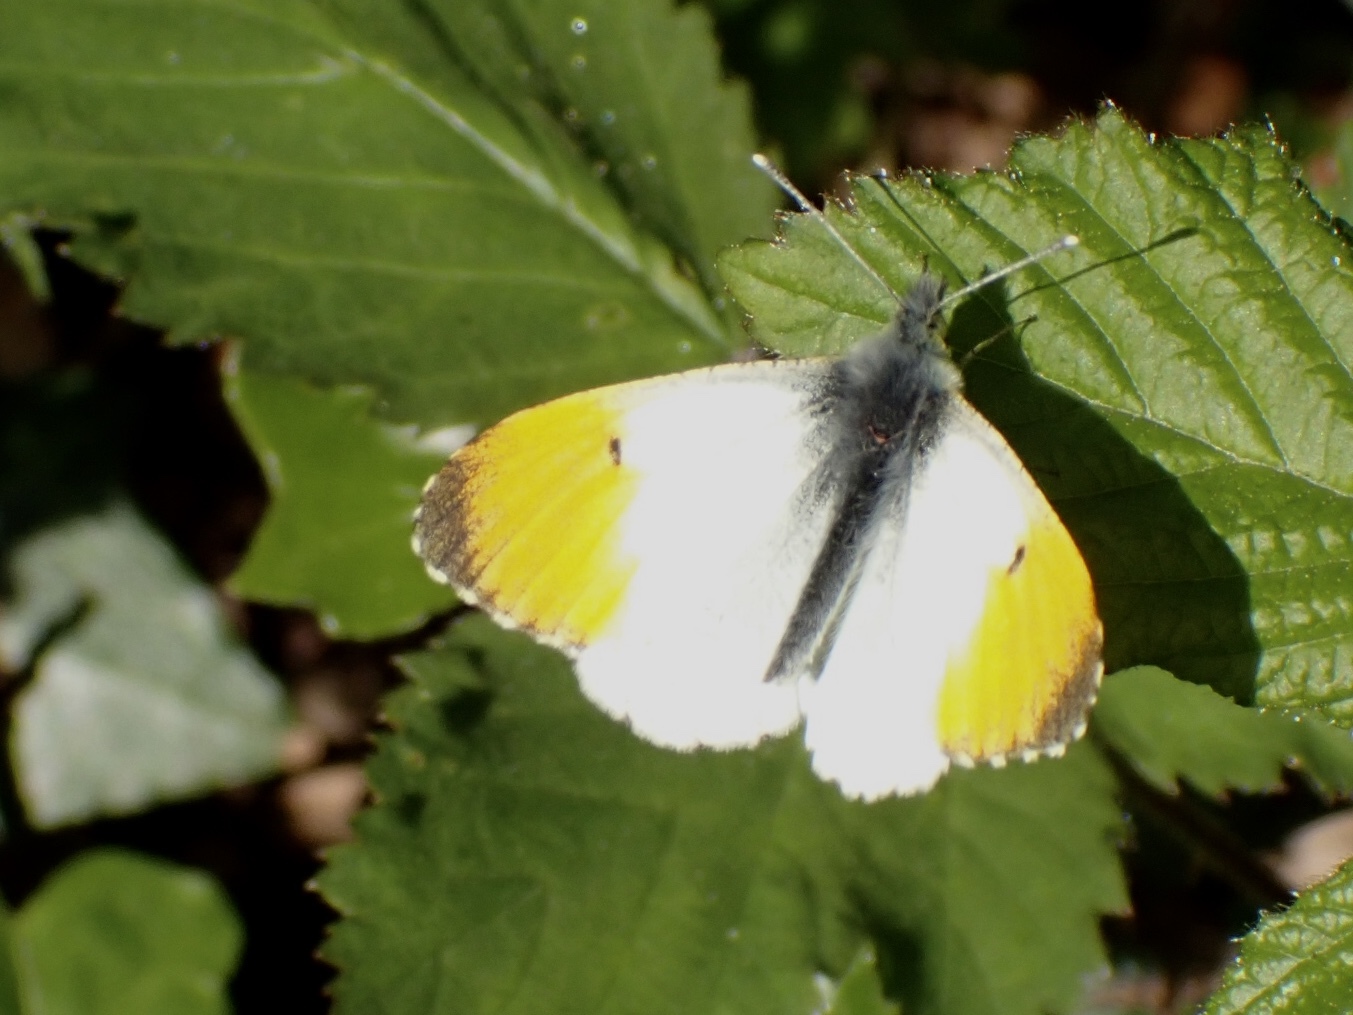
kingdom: Animalia
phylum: Arthropoda
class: Insecta
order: Lepidoptera
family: Pieridae
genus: Anthocharis
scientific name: Anthocharis cardamines
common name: Orange-tip
